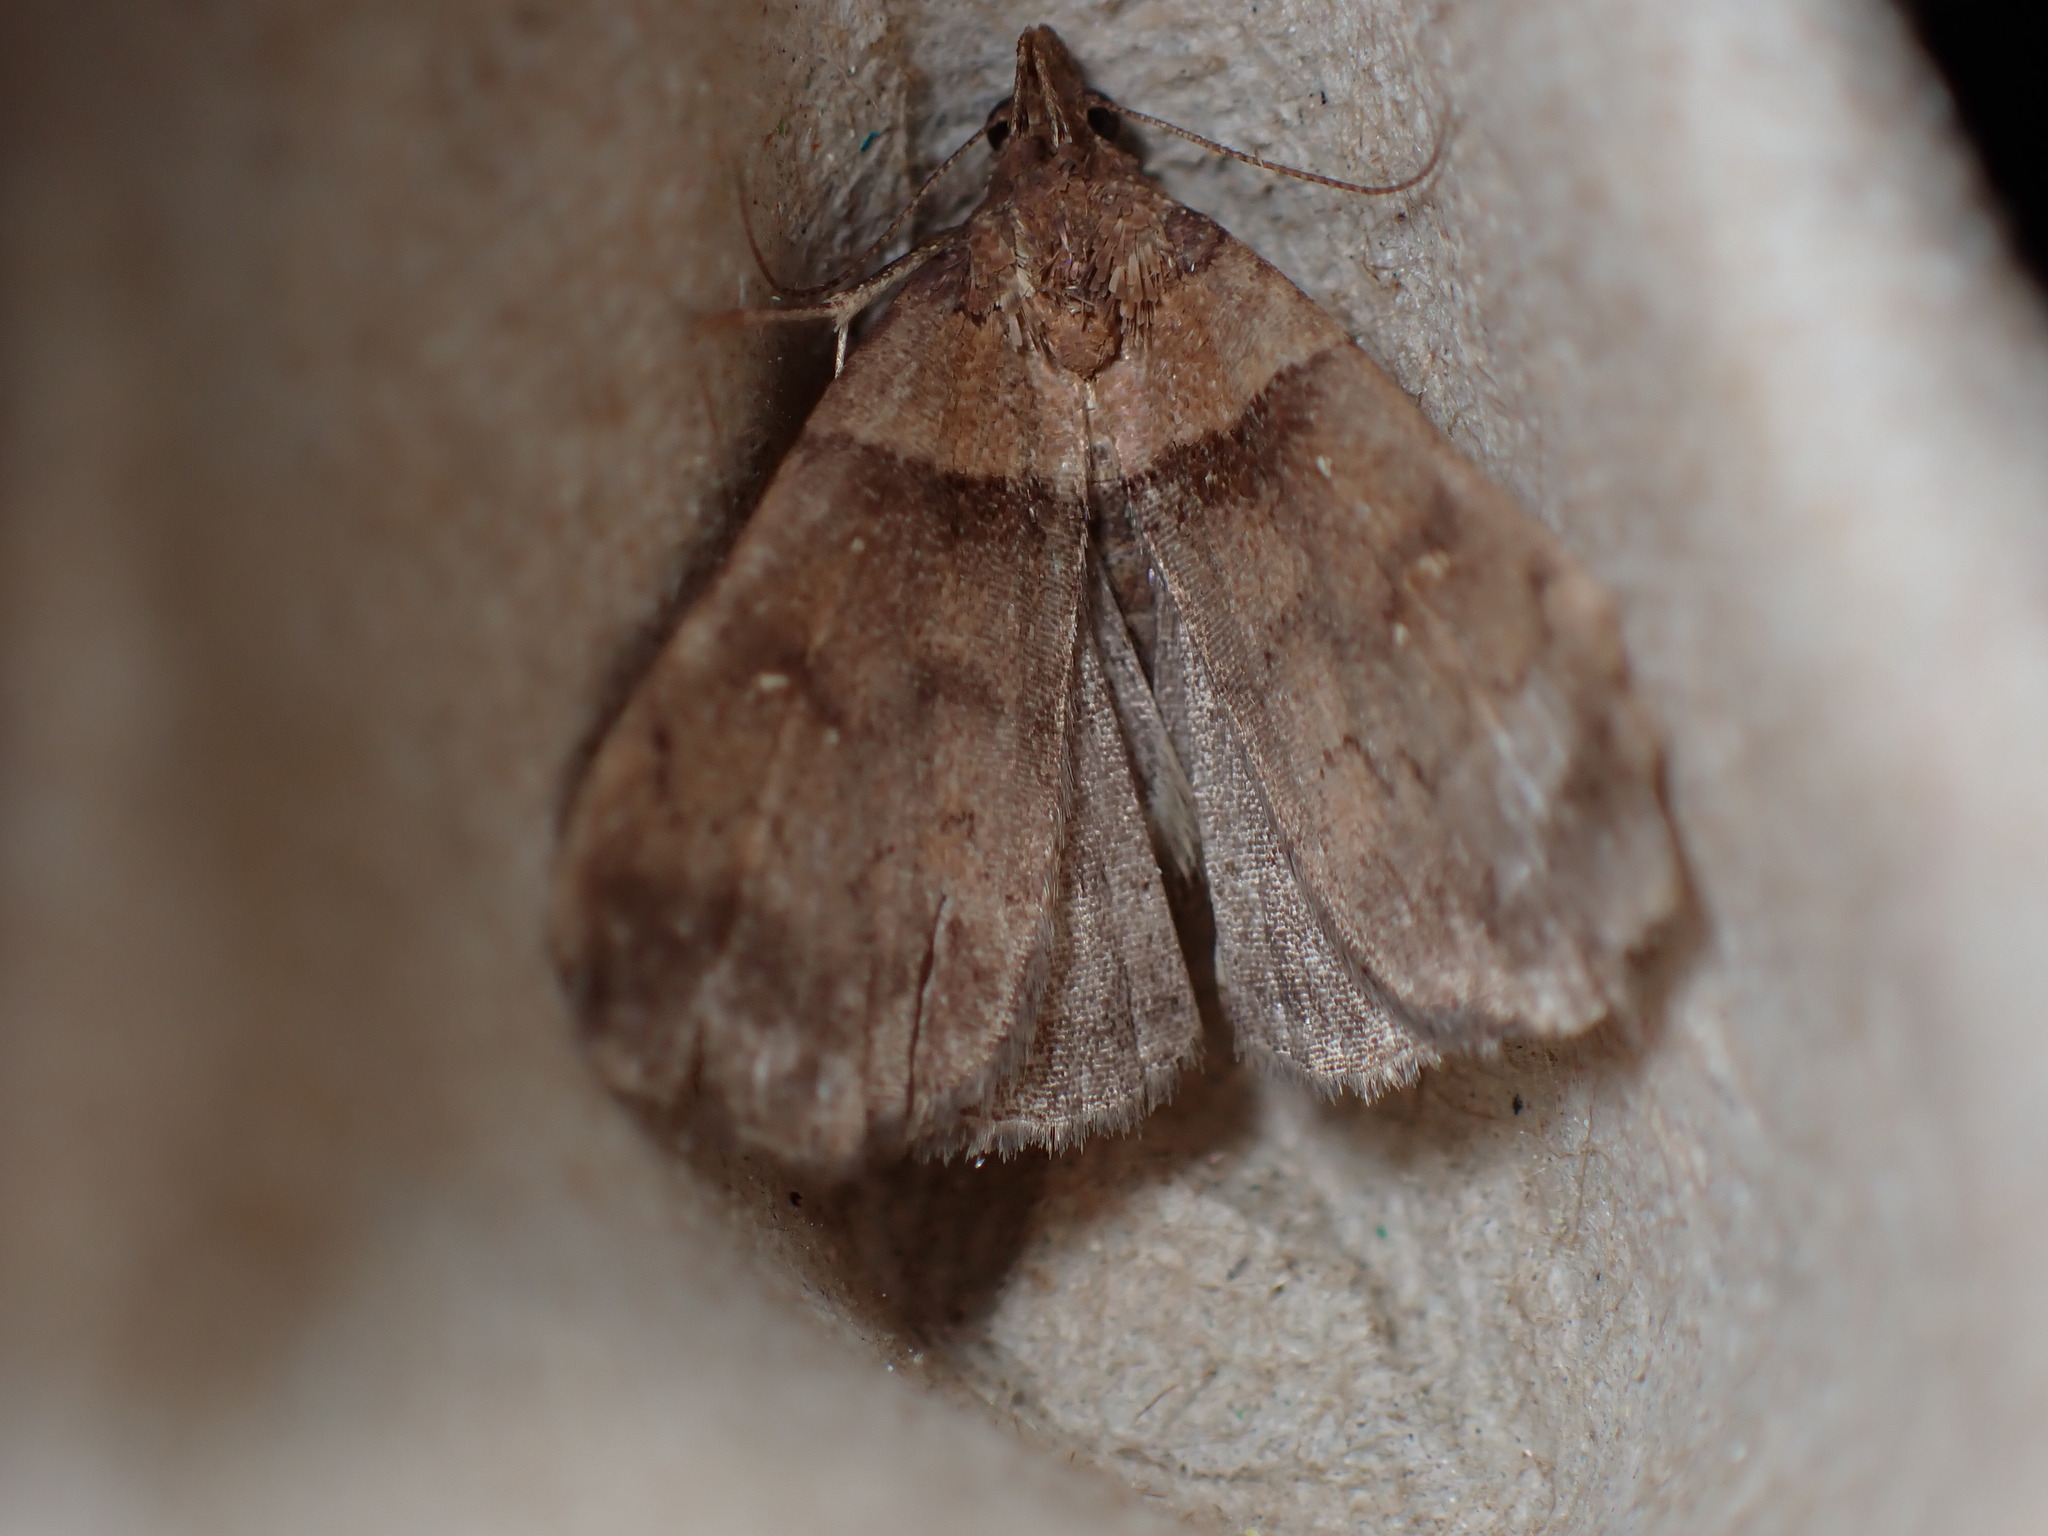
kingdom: Animalia
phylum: Arthropoda
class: Insecta
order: Lepidoptera
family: Erebidae
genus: Lascoria
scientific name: Lascoria ambigualis
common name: Ambiguous moth
